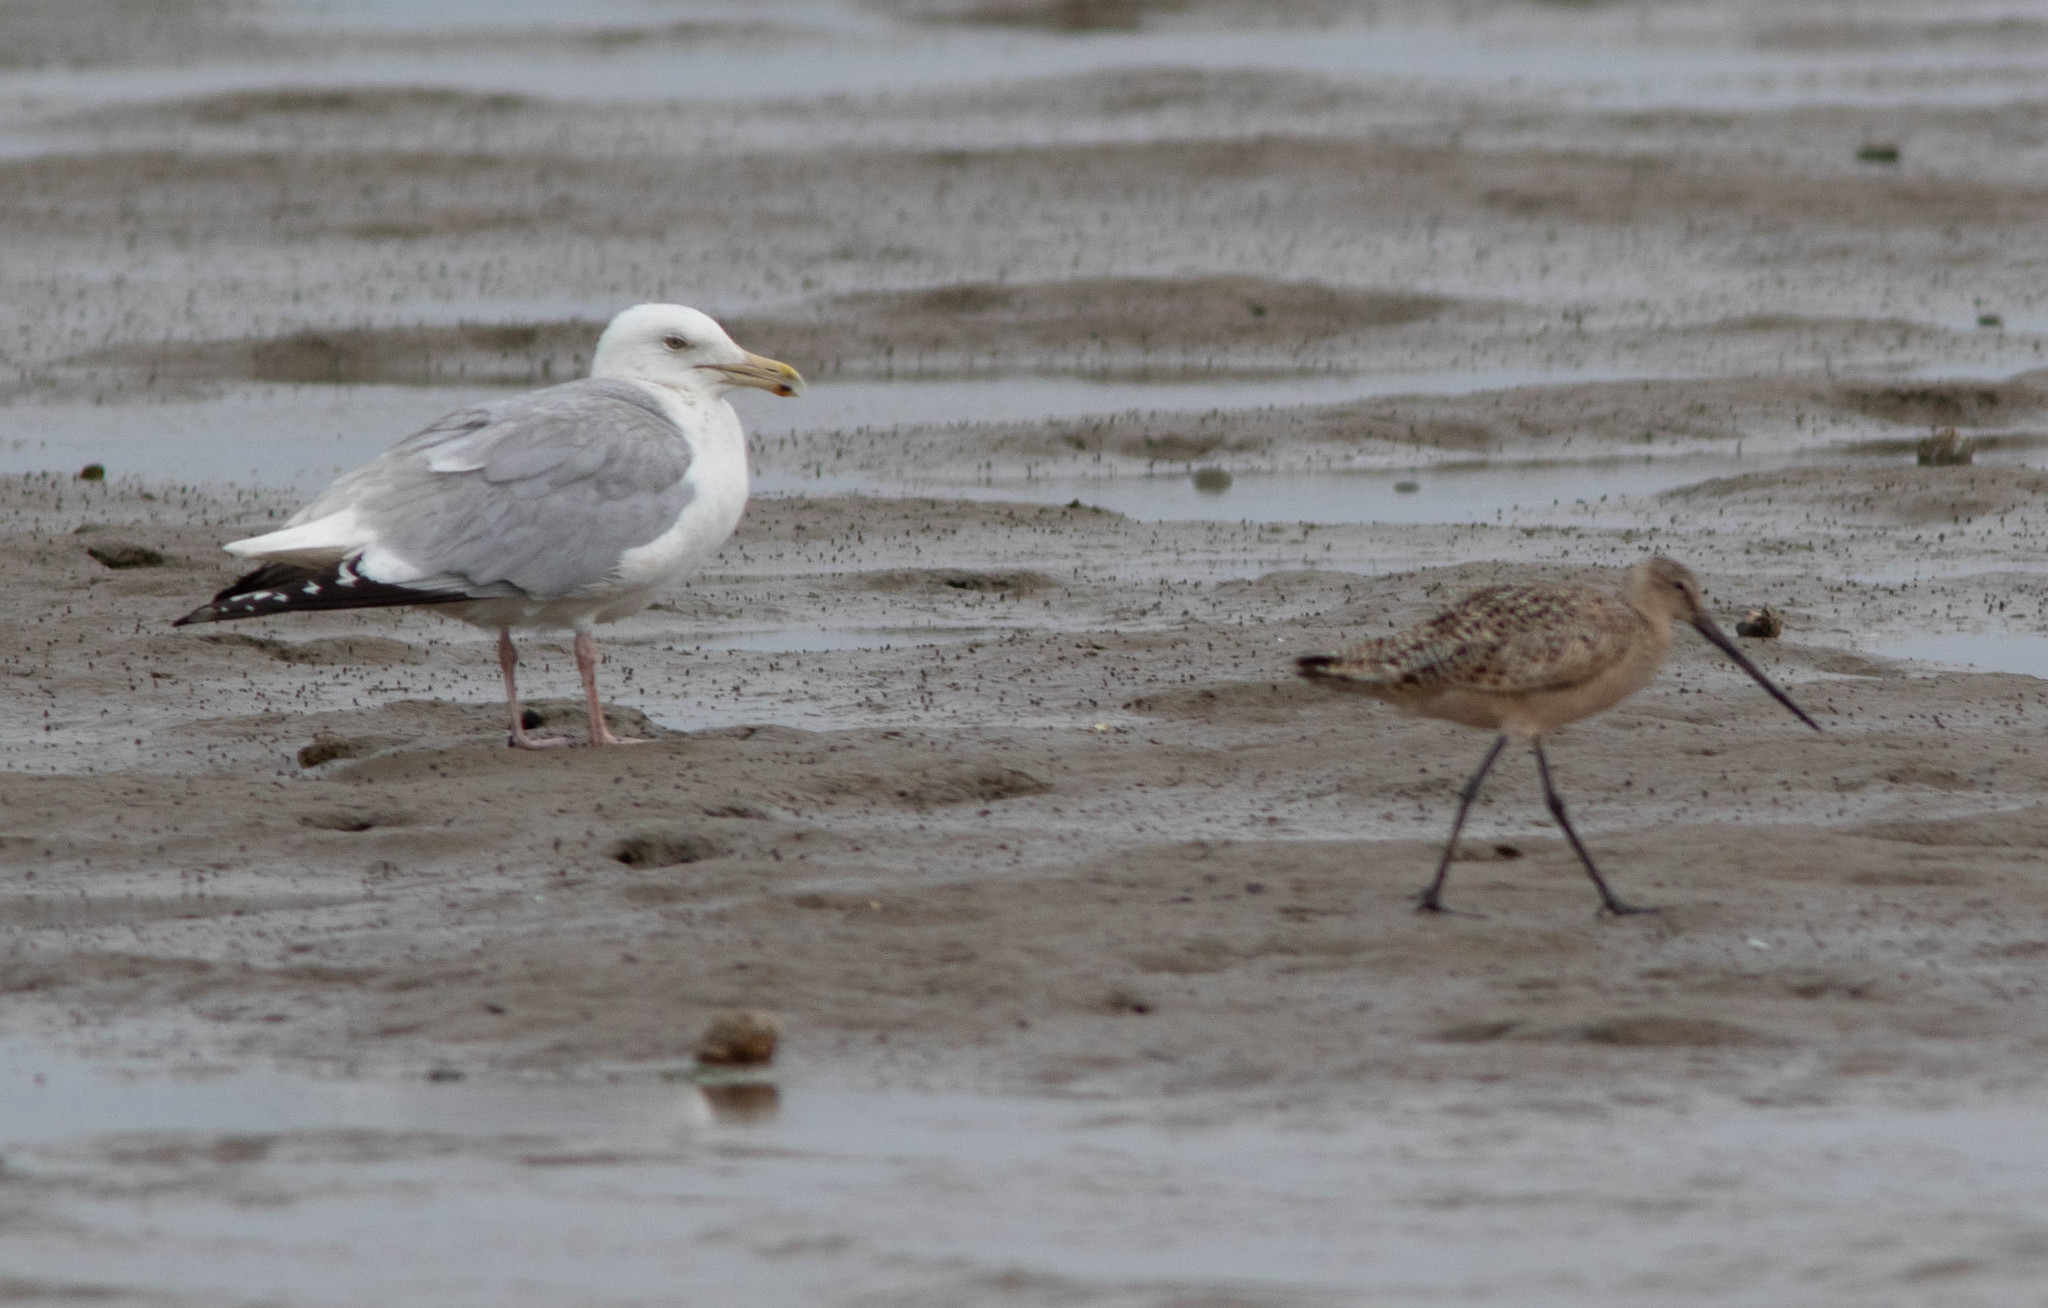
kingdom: Animalia
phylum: Chordata
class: Aves
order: Charadriiformes
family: Laridae
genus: Larus
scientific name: Larus argentatus
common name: Herring gull
